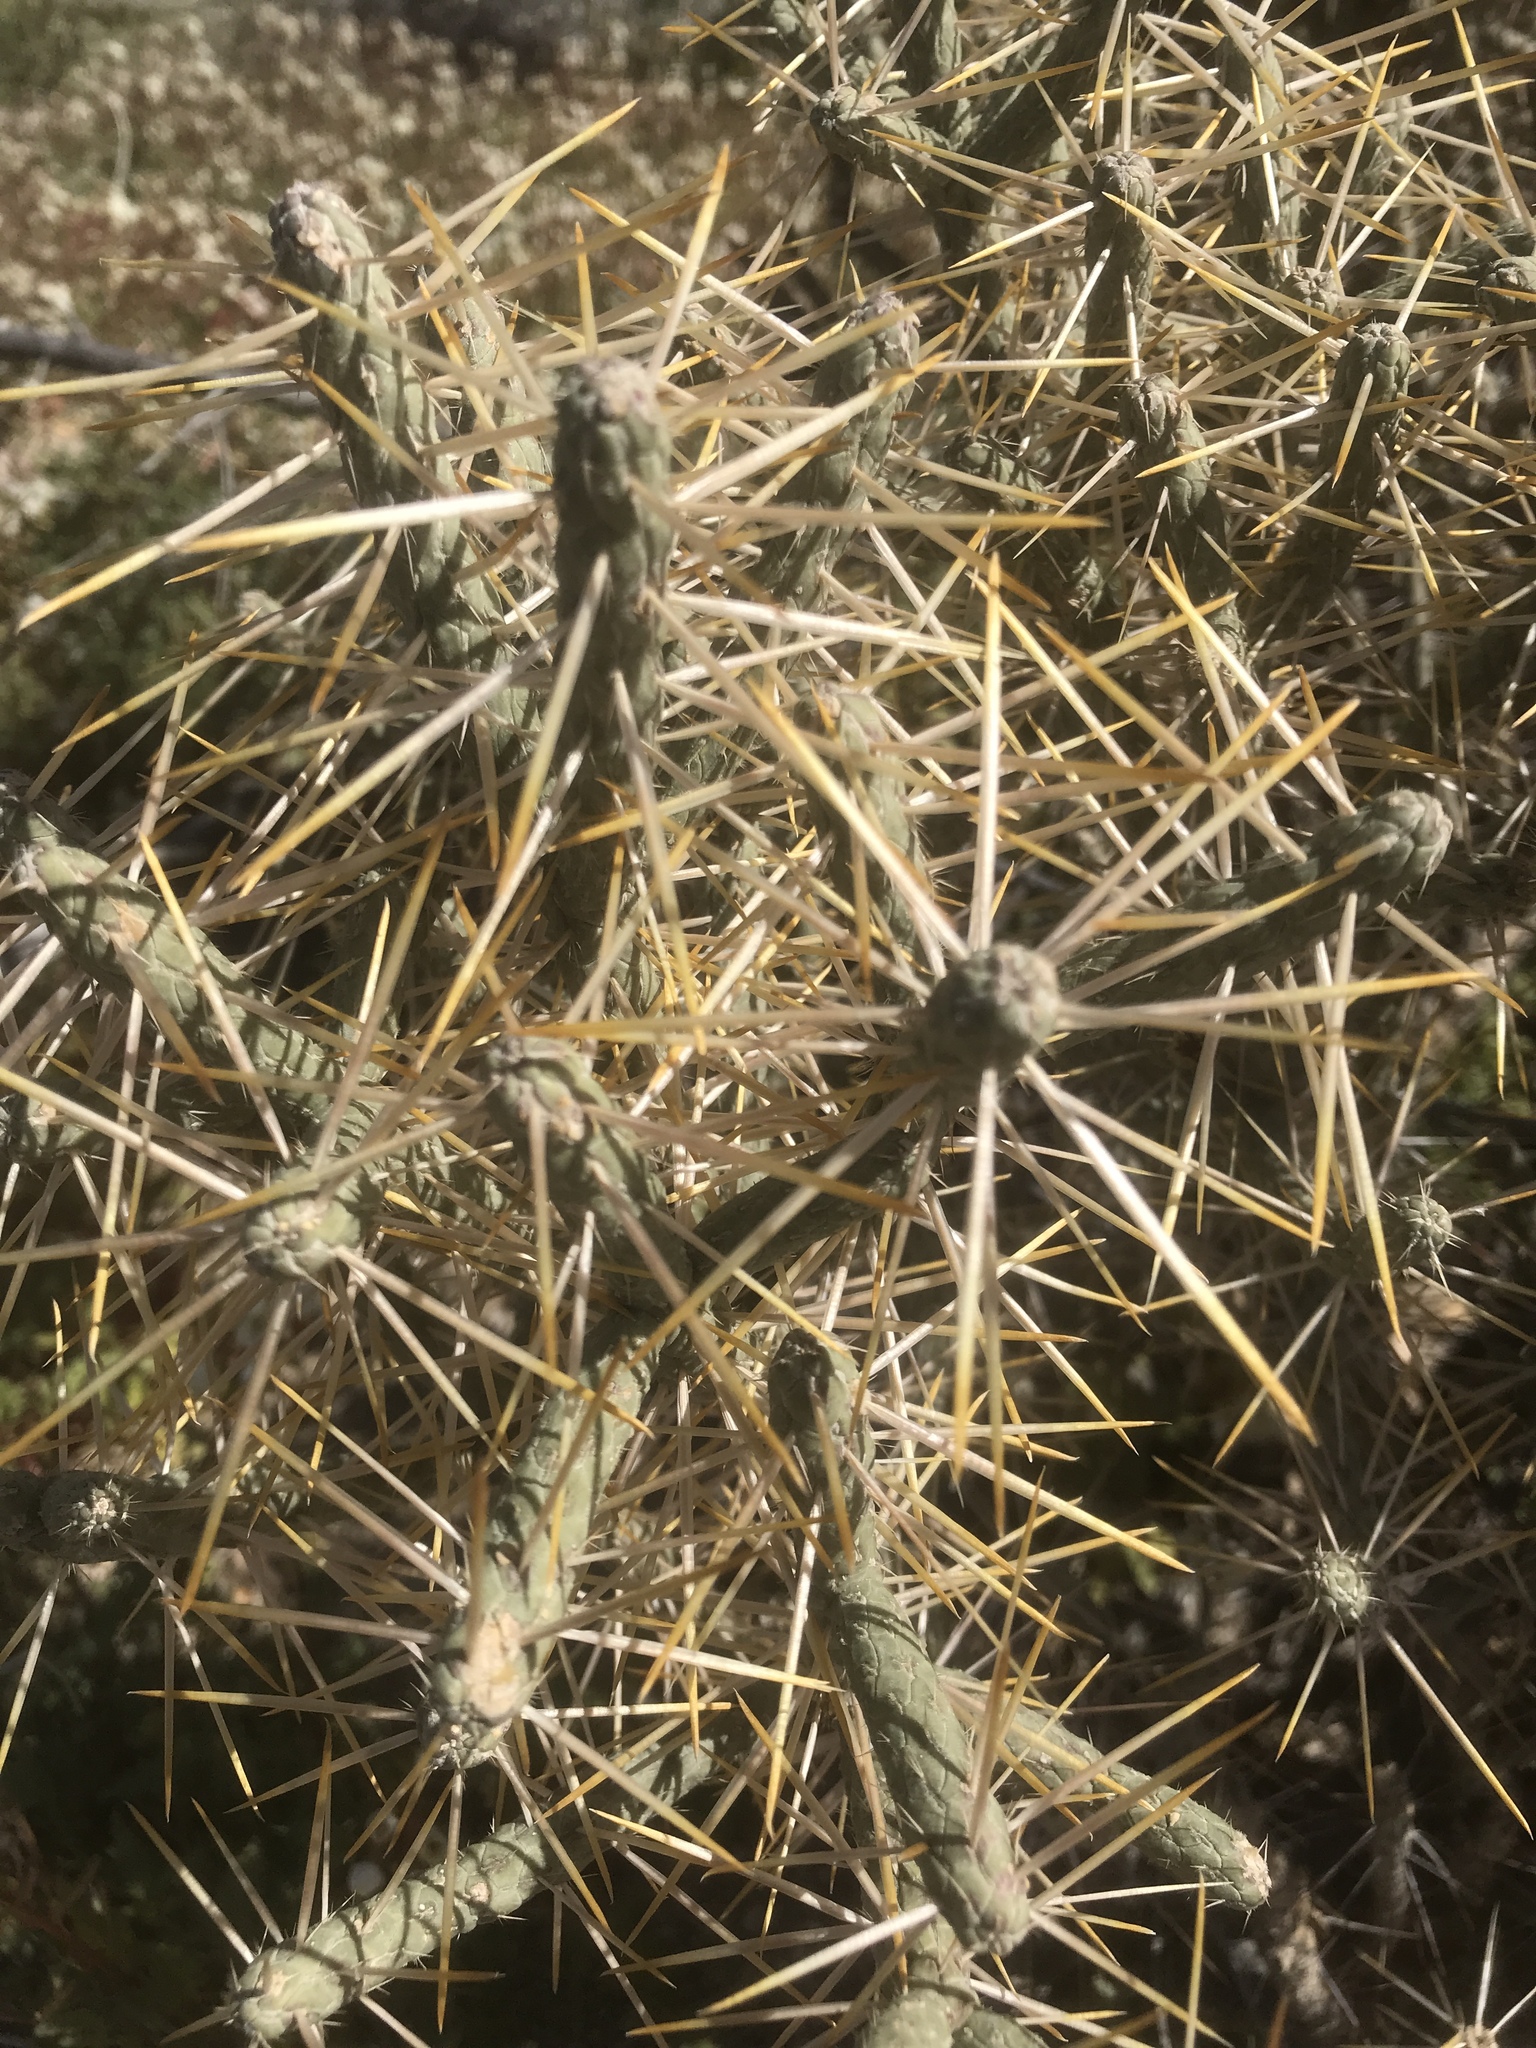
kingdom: Plantae
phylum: Tracheophyta
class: Magnoliopsida
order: Caryophyllales
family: Cactaceae
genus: Cylindropuntia
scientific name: Cylindropuntia ramosissima
